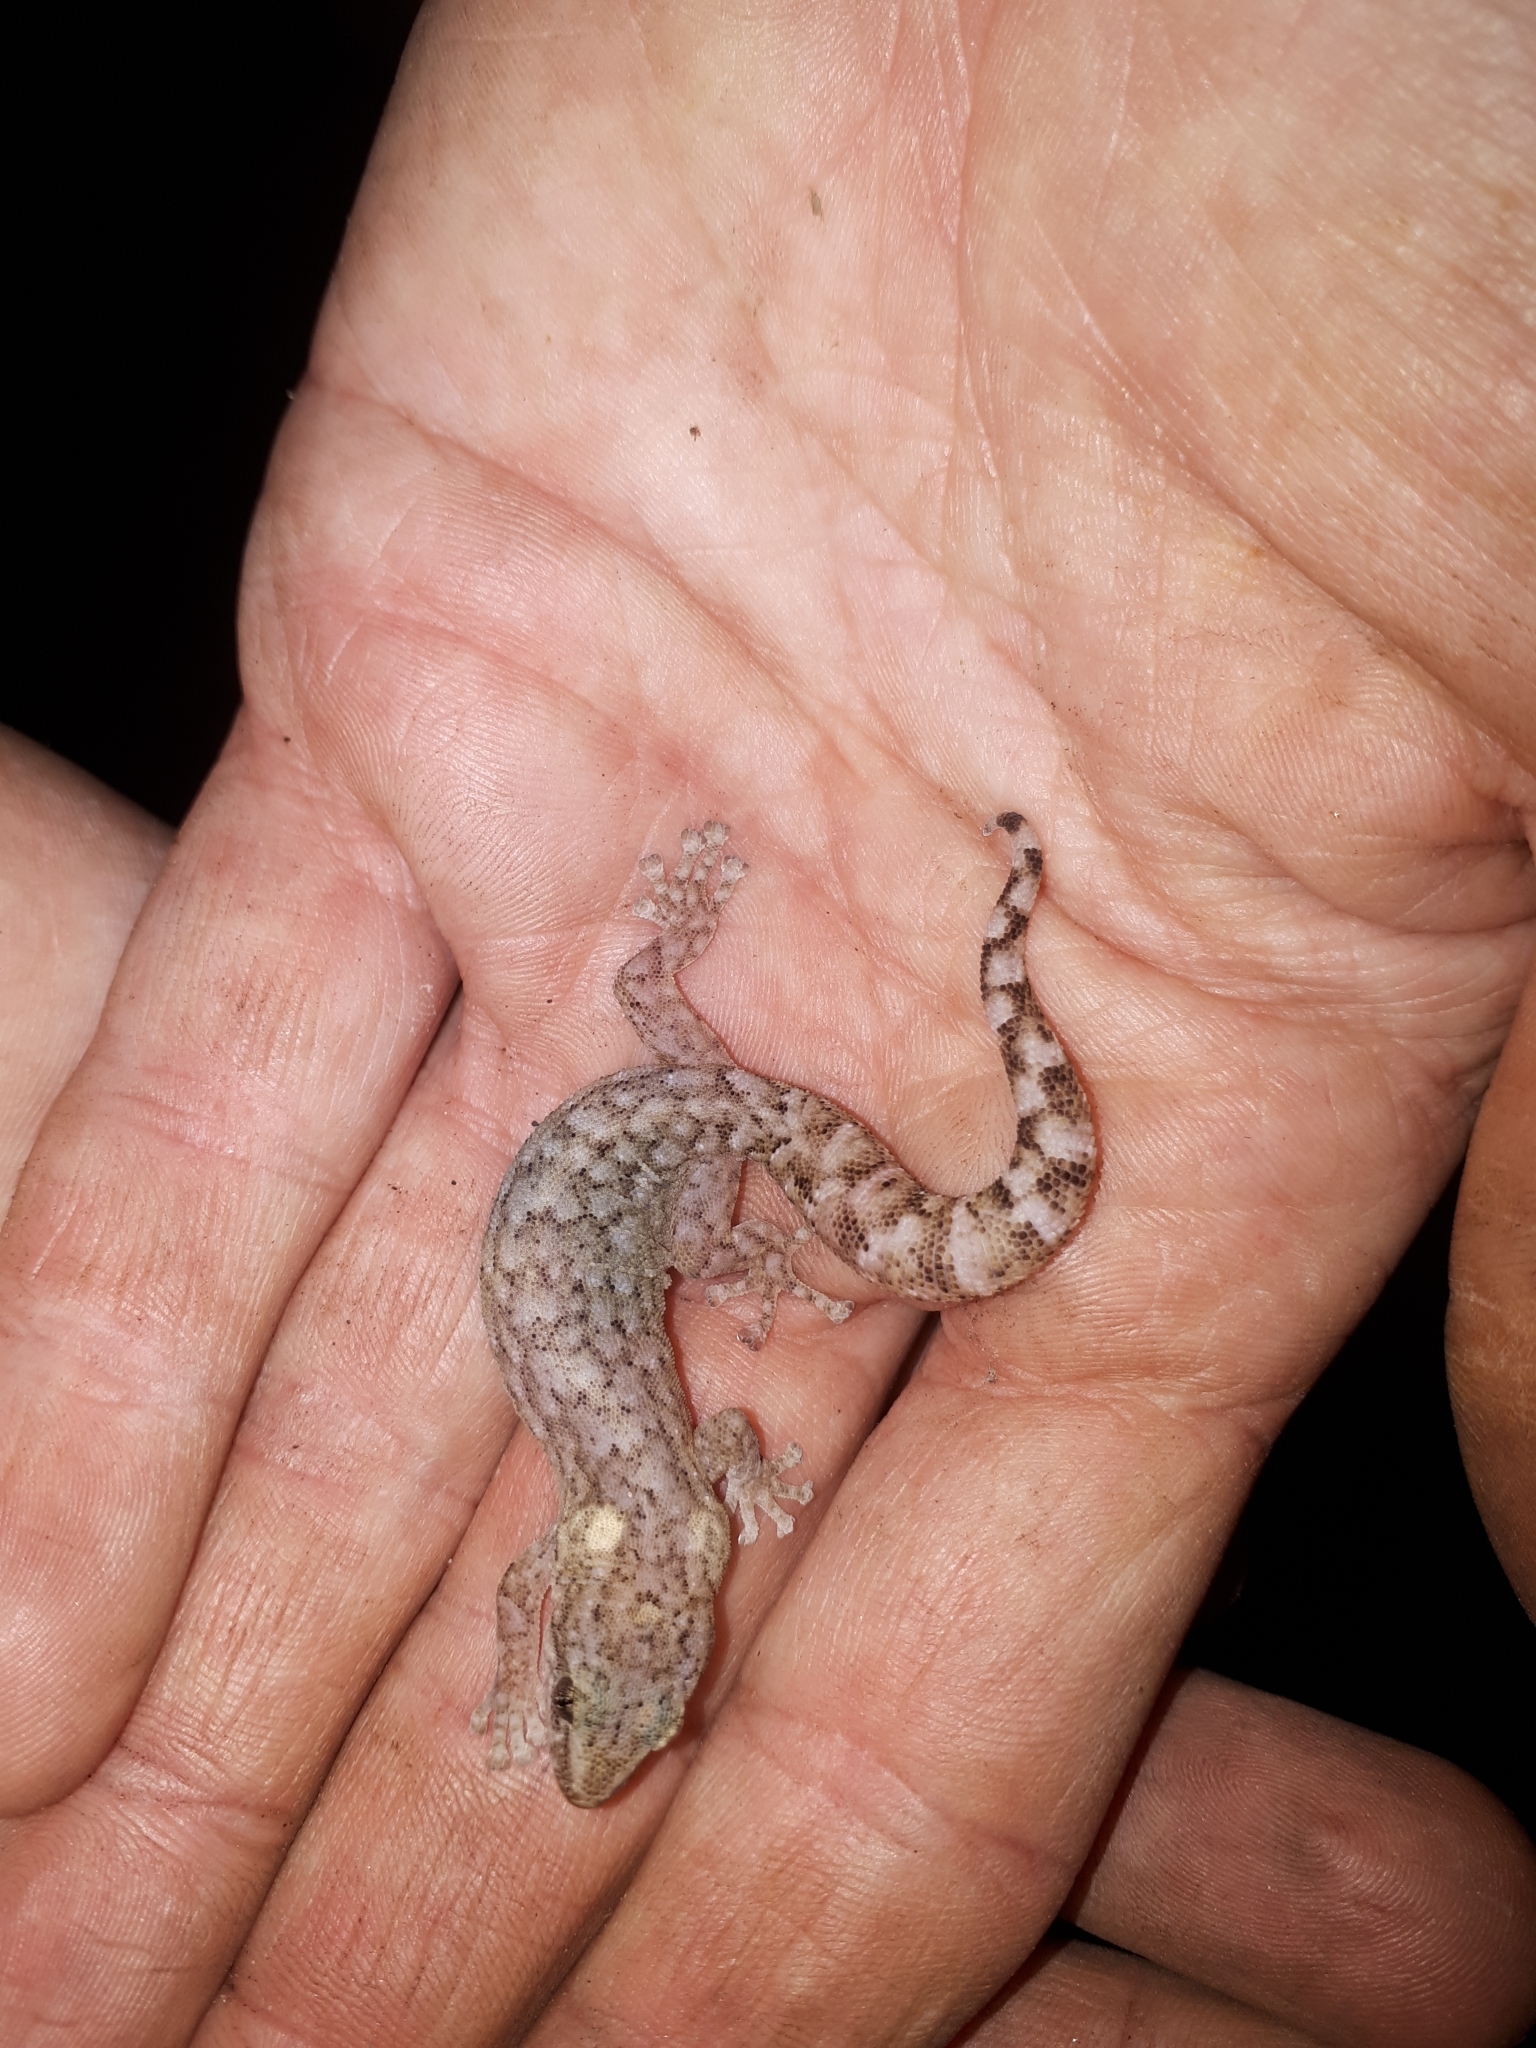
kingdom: Animalia
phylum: Chordata
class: Squamata
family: Gekkonidae
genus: Afrogecko
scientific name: Afrogecko porphyreus
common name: Marbled leaf-toed gecko
